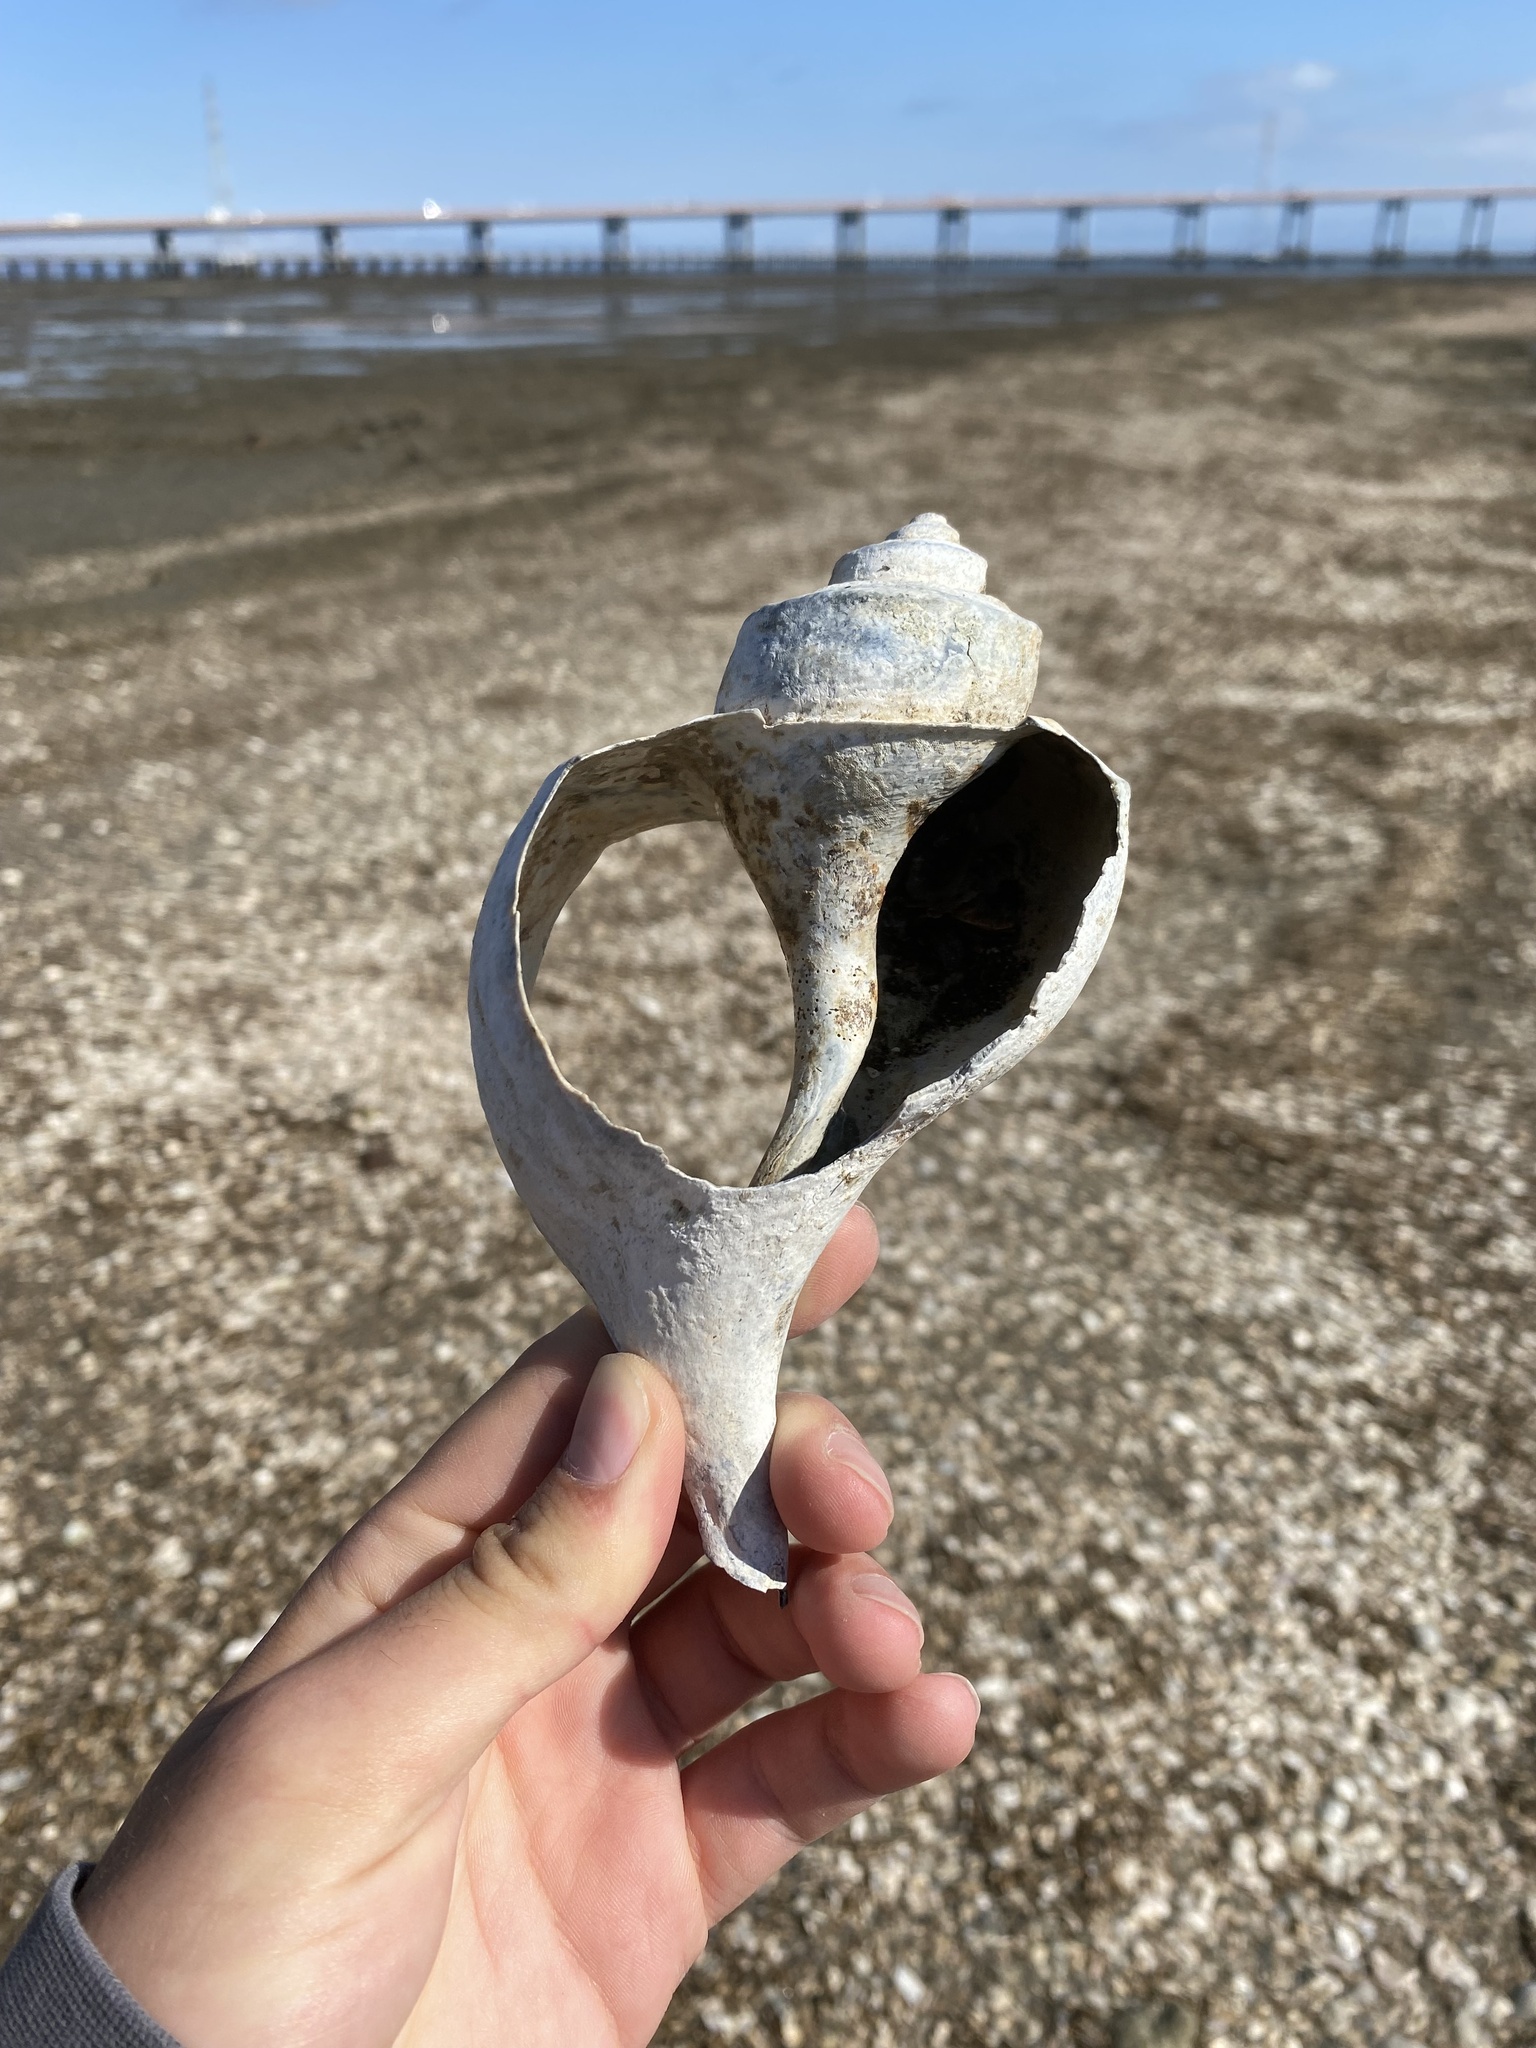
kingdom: Animalia
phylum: Mollusca
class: Gastropoda
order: Neogastropoda
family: Busyconidae
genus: Busycotypus
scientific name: Busycotypus canaliculatus
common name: Channeled whelk
